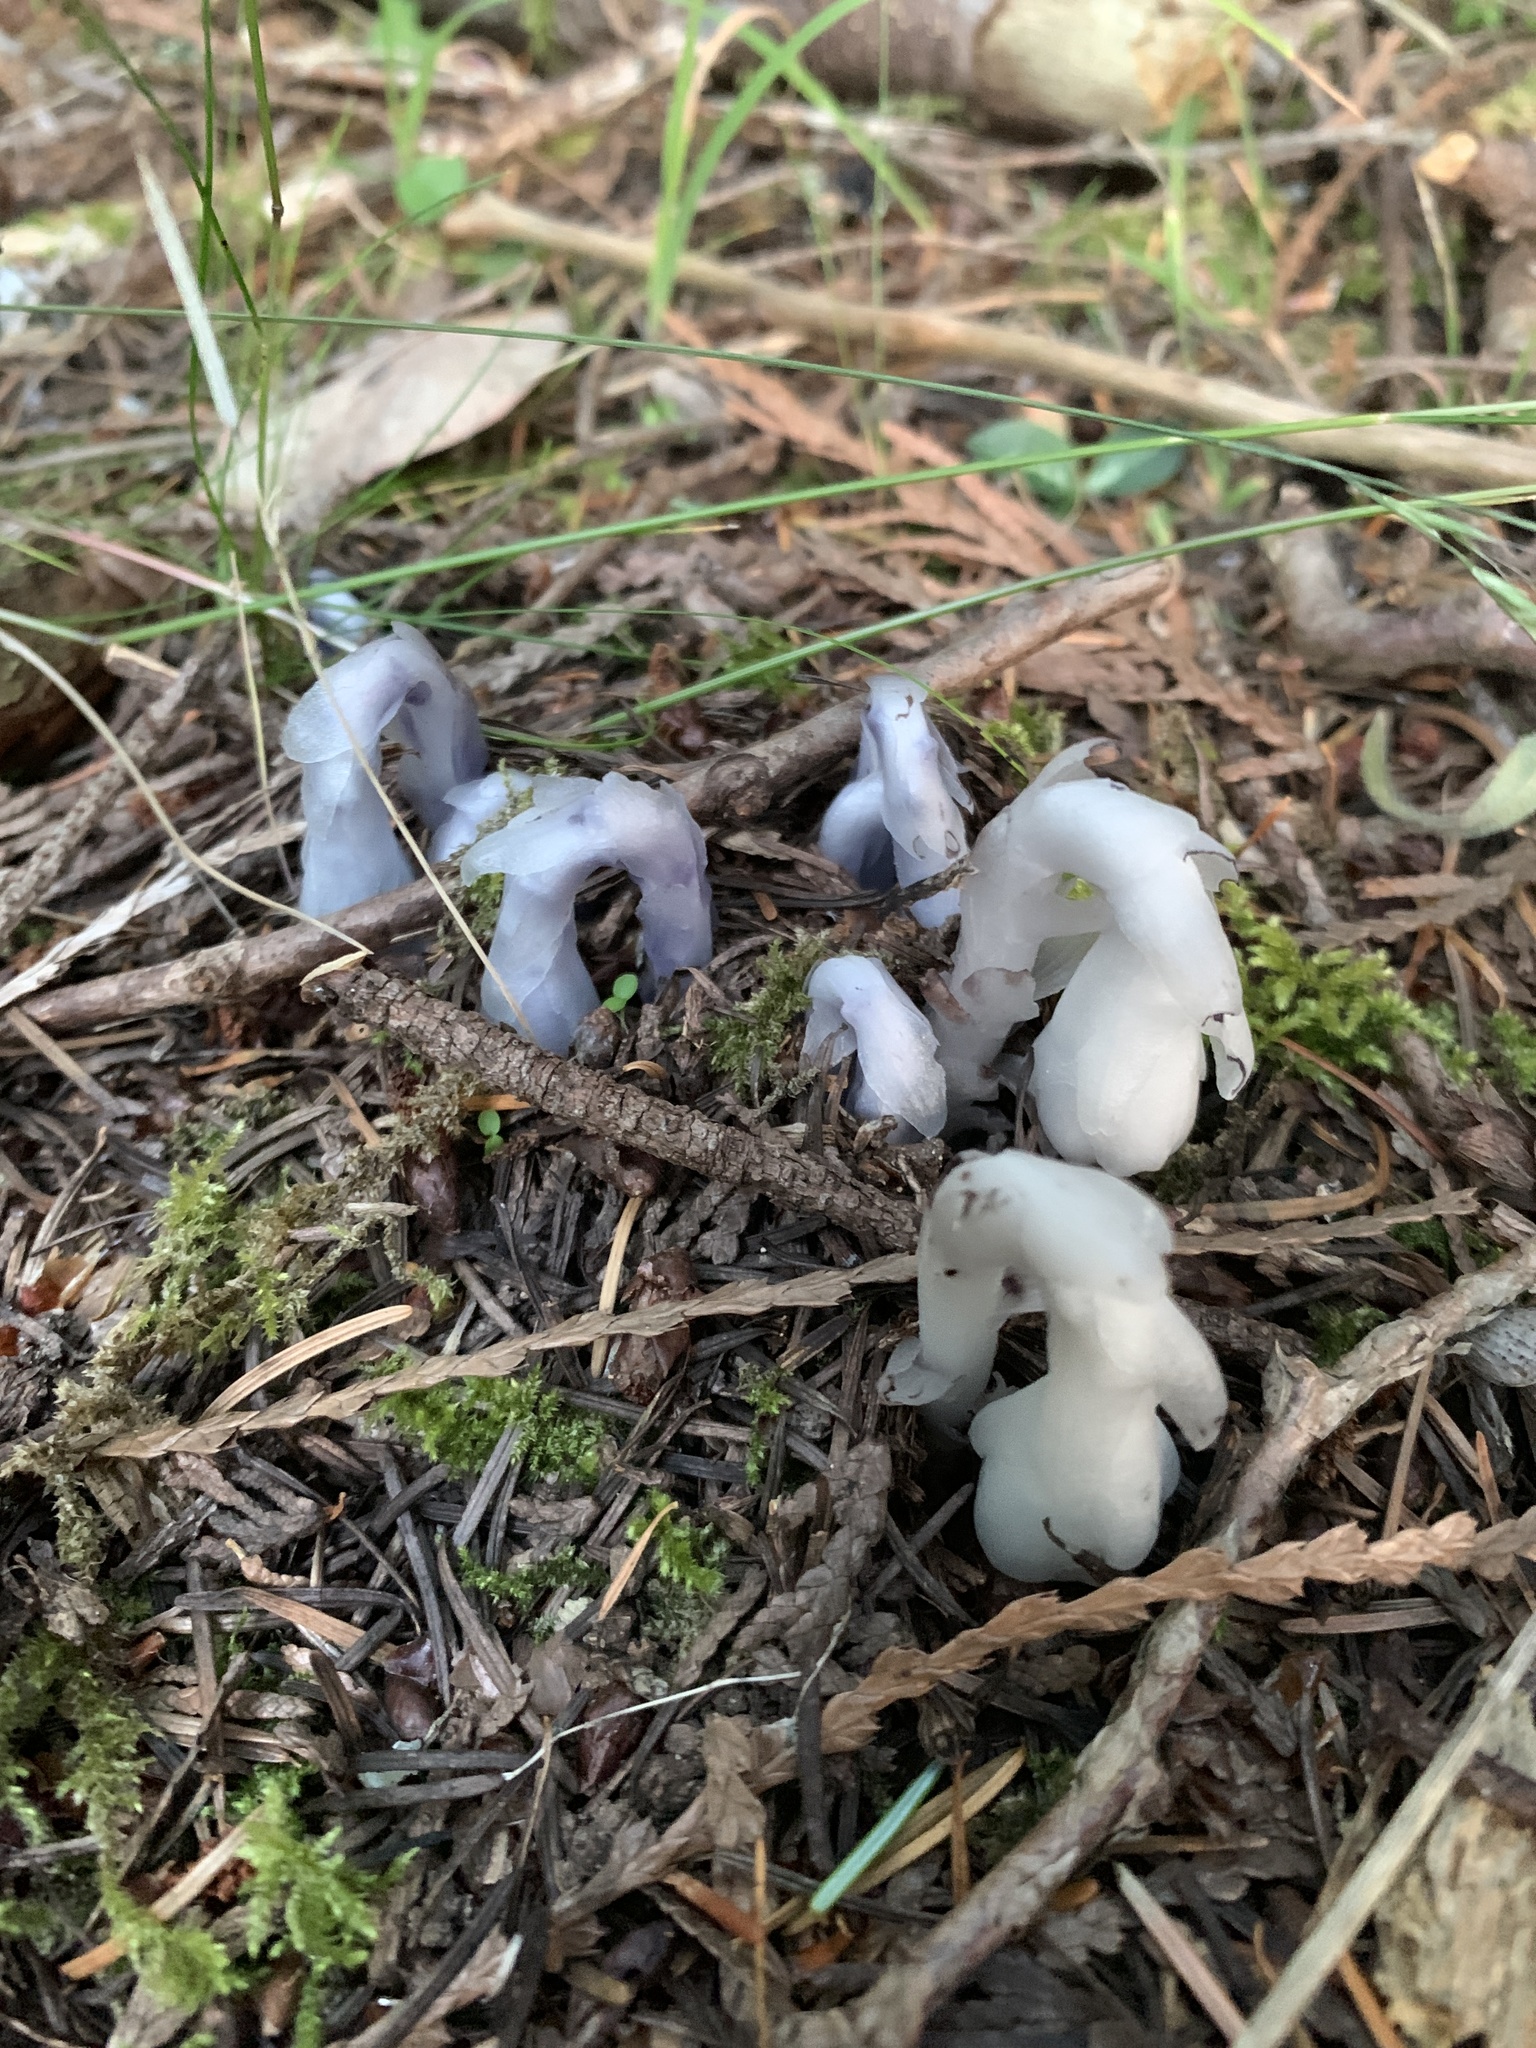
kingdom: Plantae
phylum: Tracheophyta
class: Magnoliopsida
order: Ericales
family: Ericaceae
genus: Monotropa
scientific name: Monotropa uniflora
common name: Convulsion root
